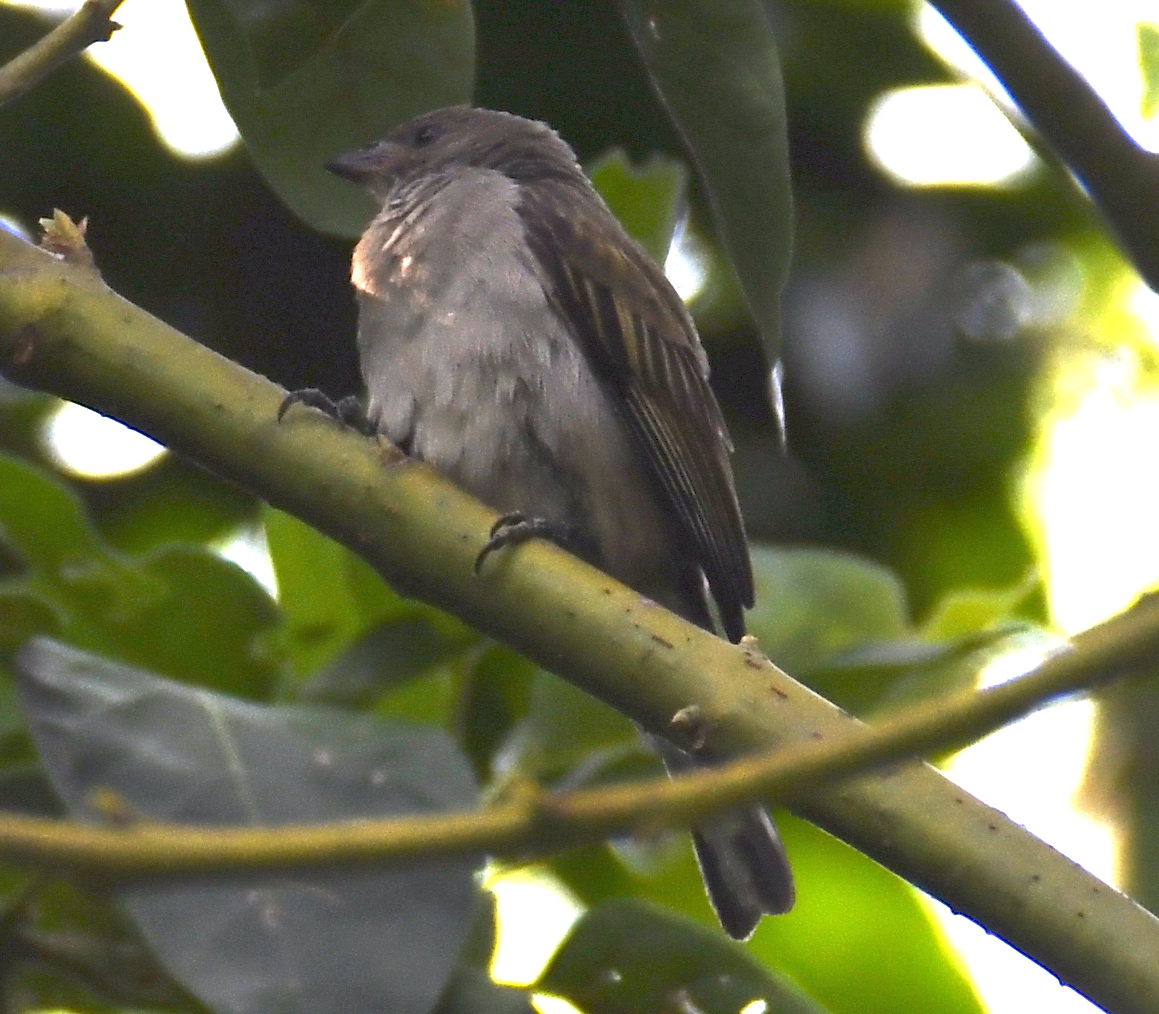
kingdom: Animalia
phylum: Chordata
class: Aves
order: Piciformes
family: Indicatoridae
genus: Indicator
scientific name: Indicator minor
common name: Lesser honeyguide
